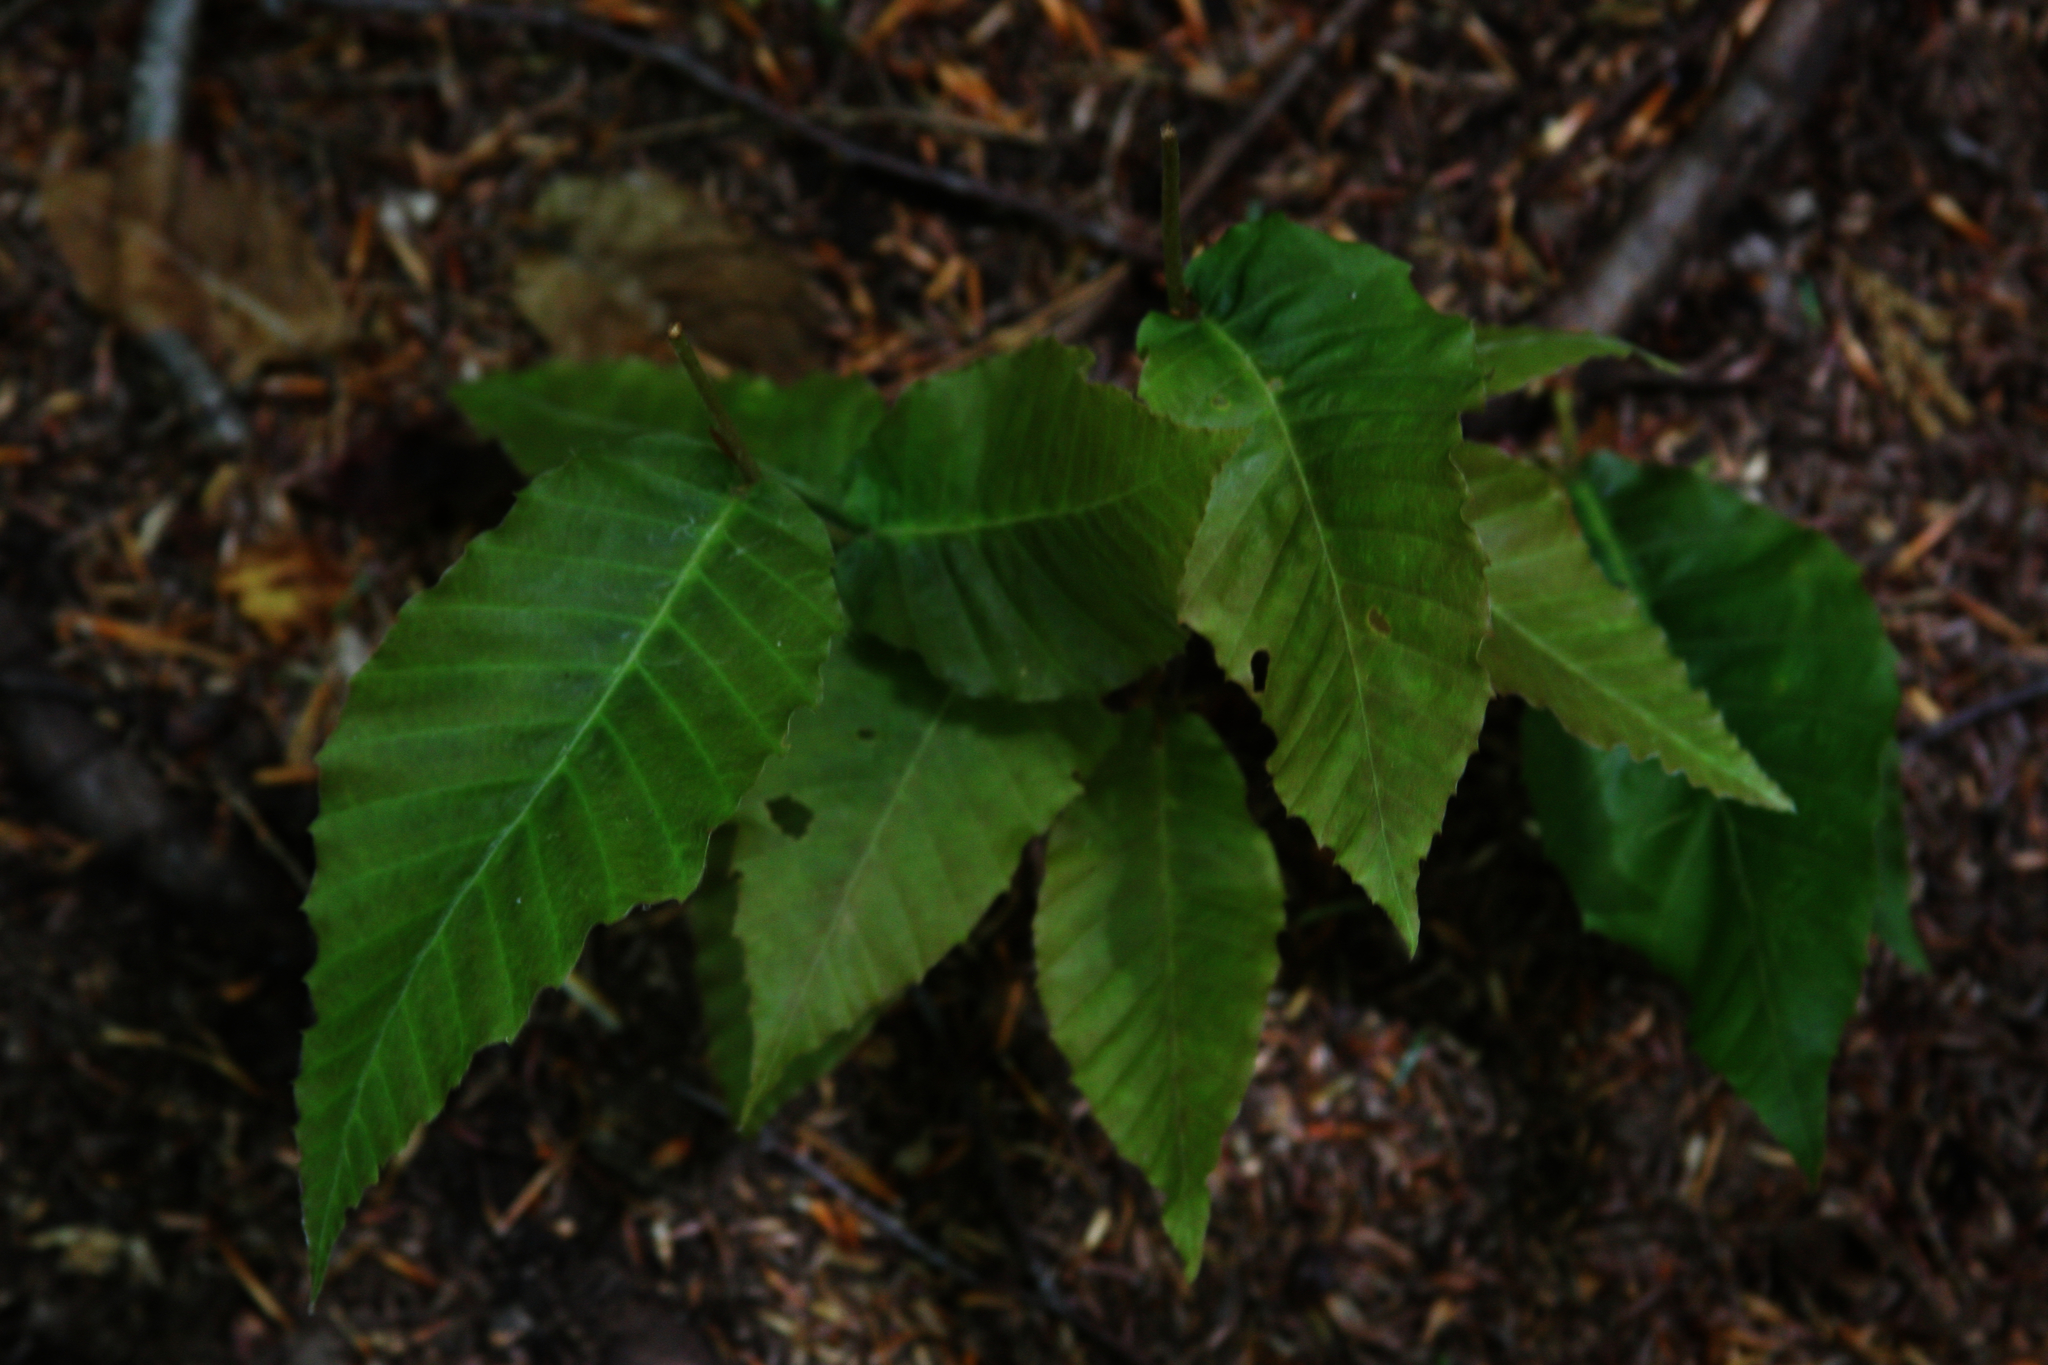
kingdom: Plantae
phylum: Tracheophyta
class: Magnoliopsida
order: Fagales
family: Fagaceae
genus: Fagus
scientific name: Fagus grandifolia
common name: American beech
